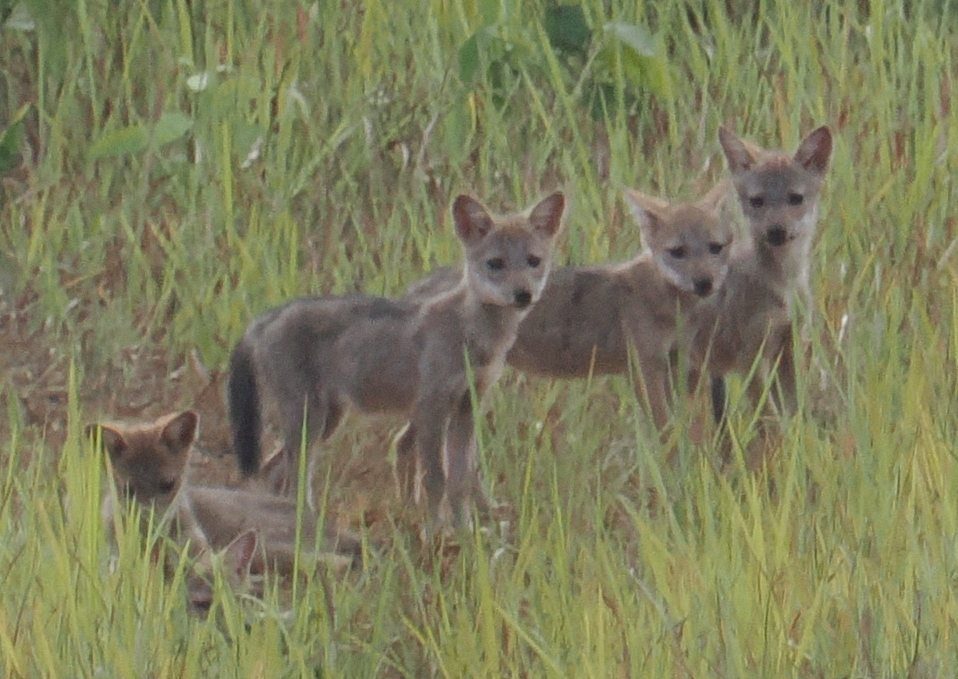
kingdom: Animalia
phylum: Chordata
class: Mammalia
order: Carnivora
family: Canidae
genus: Cuon
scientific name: Cuon alpinus
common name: Dhole
